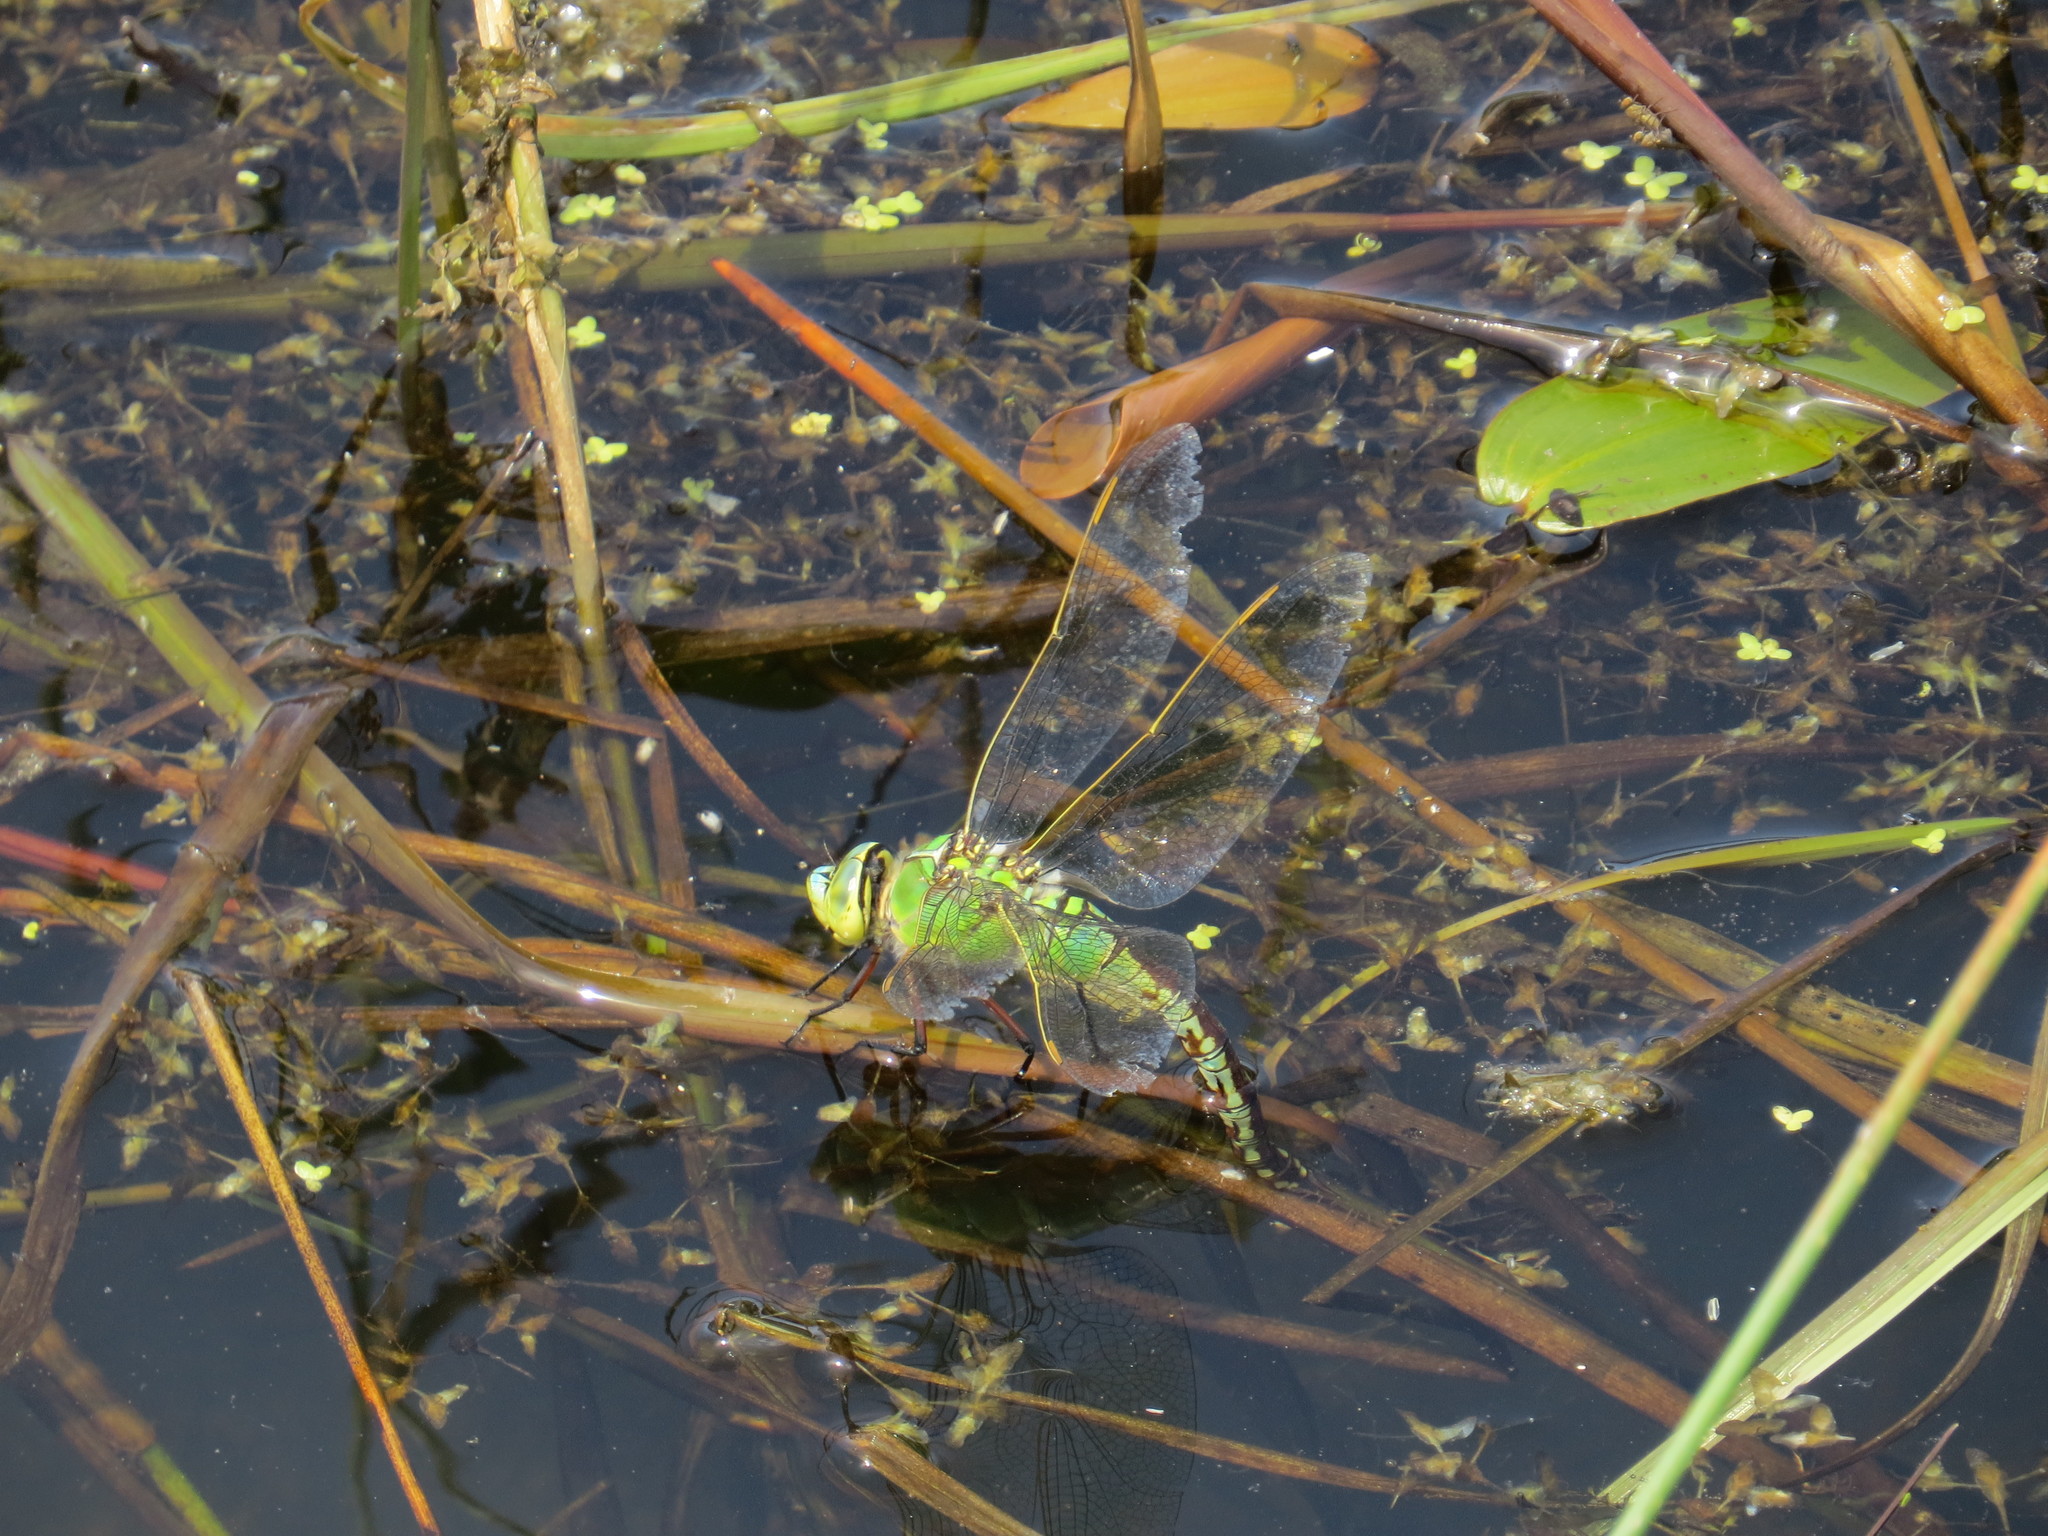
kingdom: Animalia
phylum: Arthropoda
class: Insecta
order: Odonata
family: Aeshnidae
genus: Anax
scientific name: Anax imperator
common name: Emperor dragonfly
